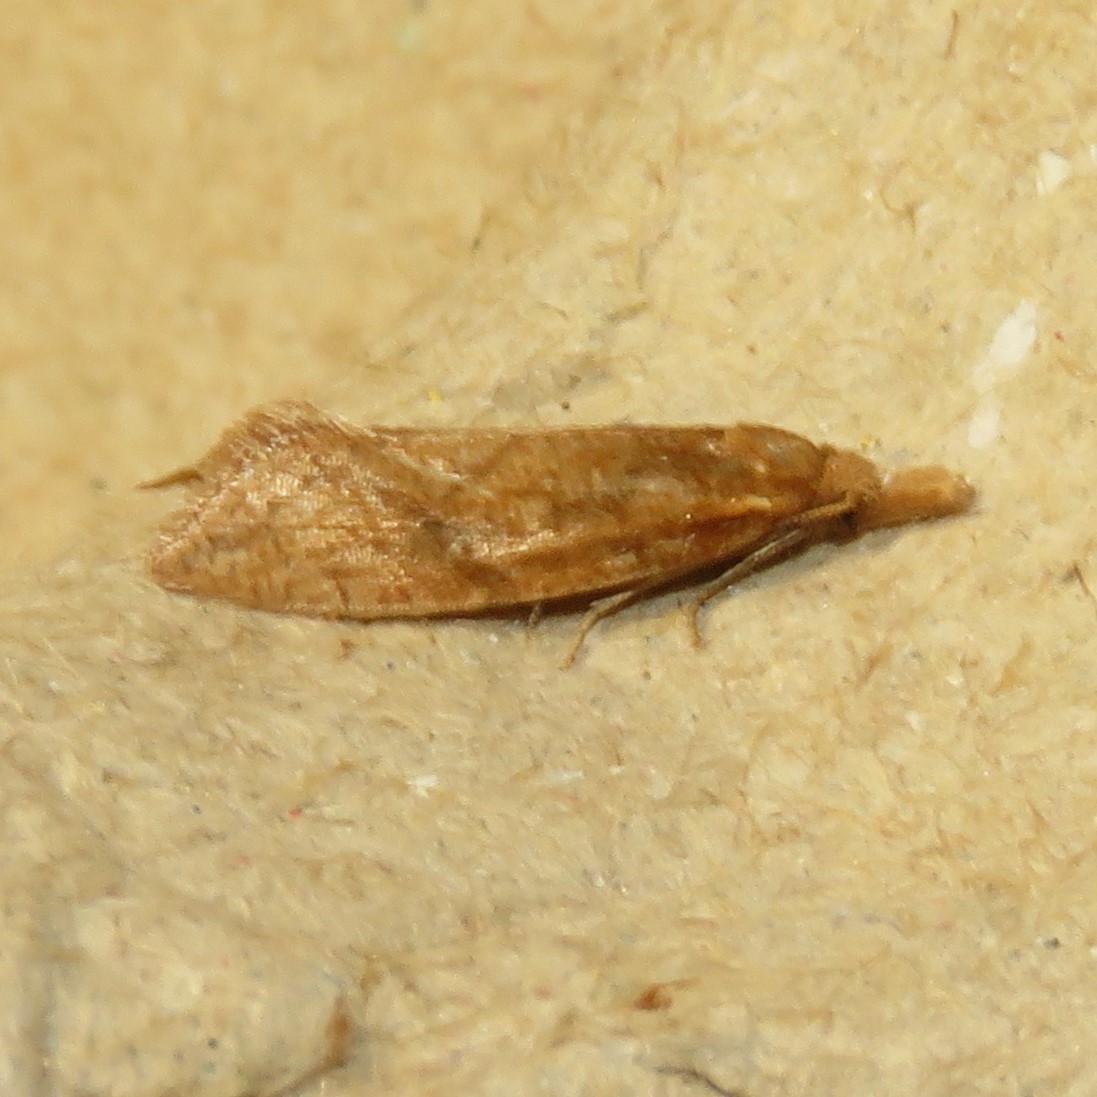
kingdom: Animalia
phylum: Arthropoda
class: Insecta
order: Lepidoptera
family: Tortricidae
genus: Aethes
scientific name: Aethes biscana
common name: Reddish aethes
